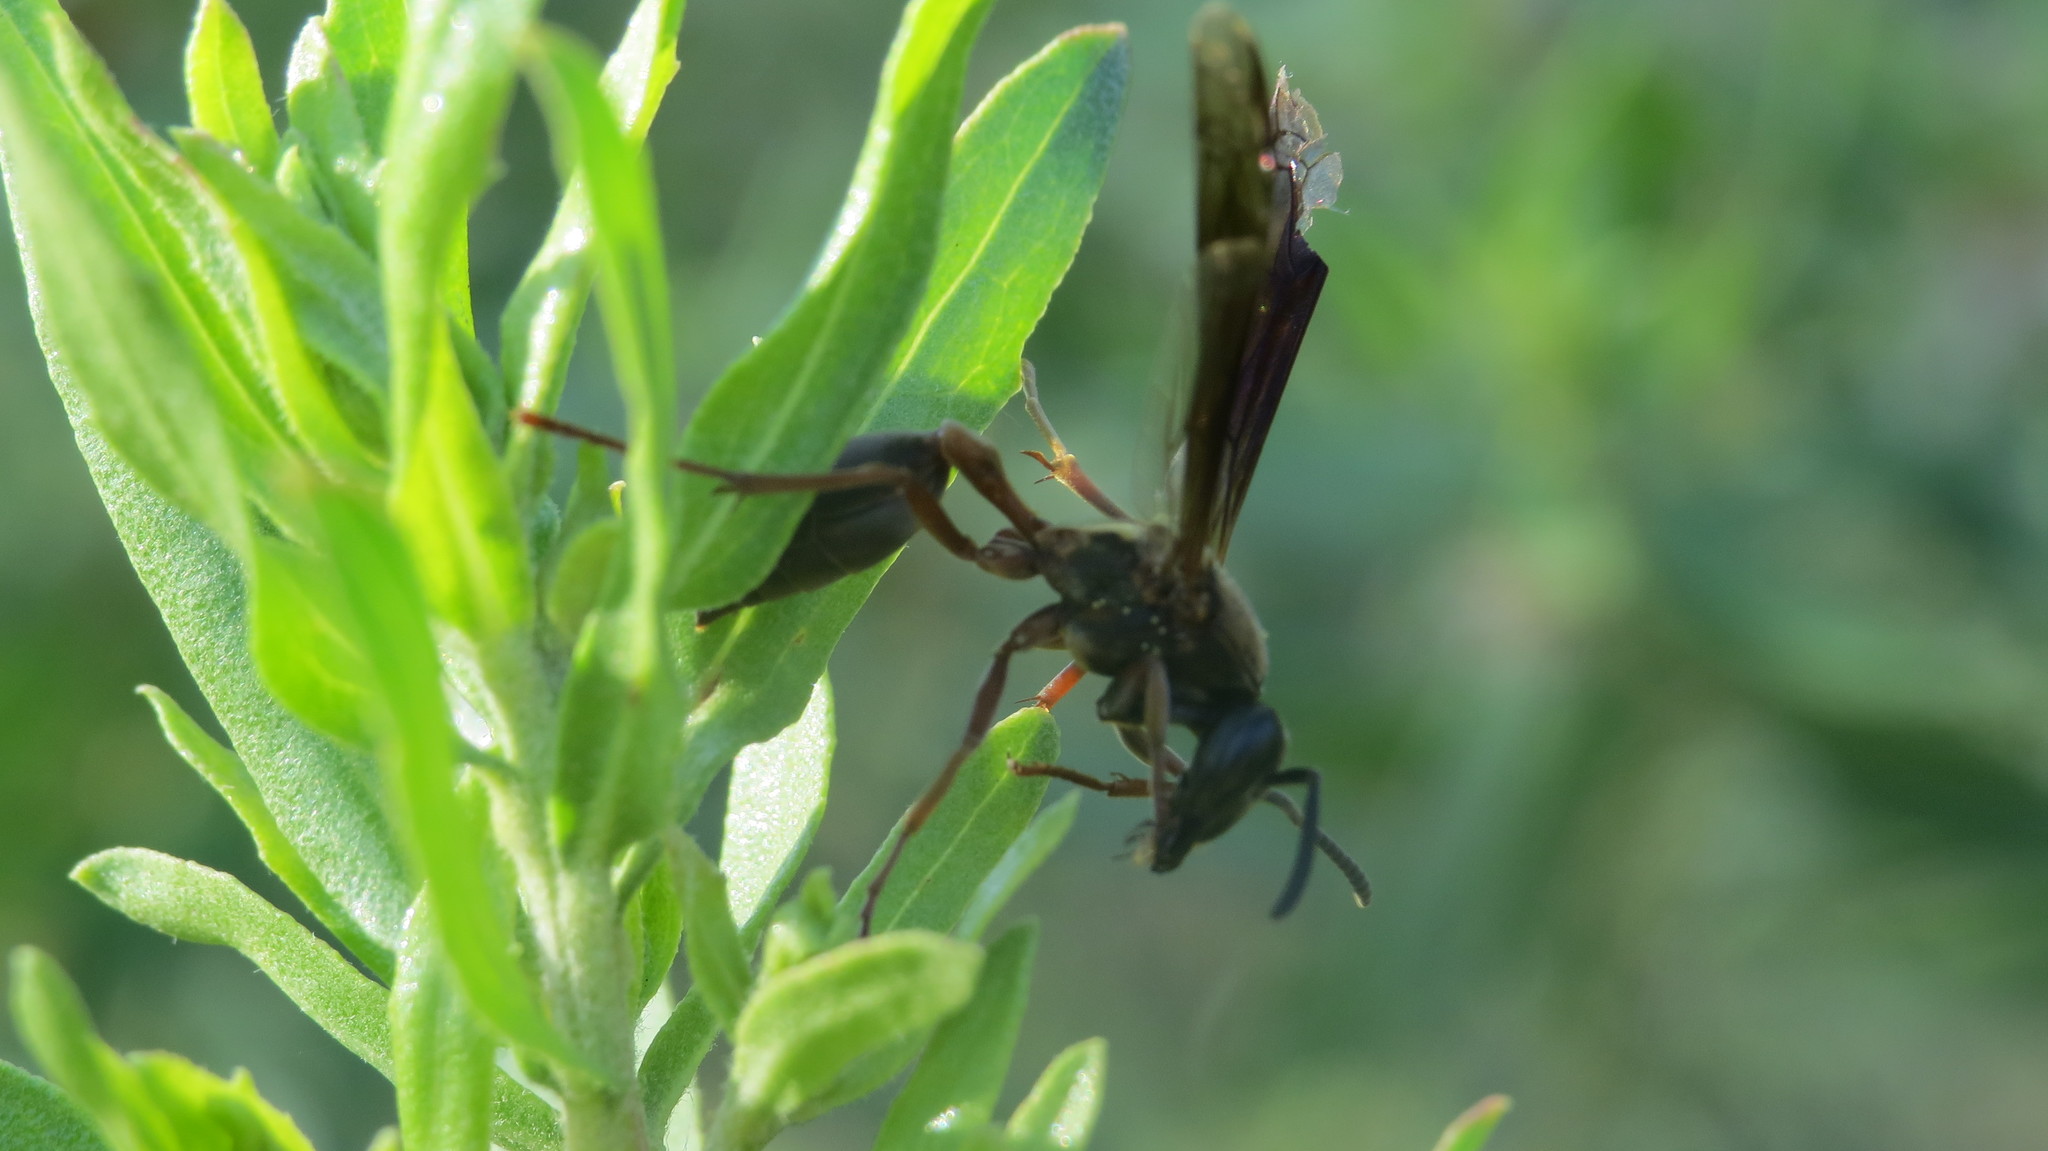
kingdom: Animalia
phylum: Arthropoda
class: Insecta
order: Hymenoptera
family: Eumenidae
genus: Polybia
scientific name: Polybia sericea
